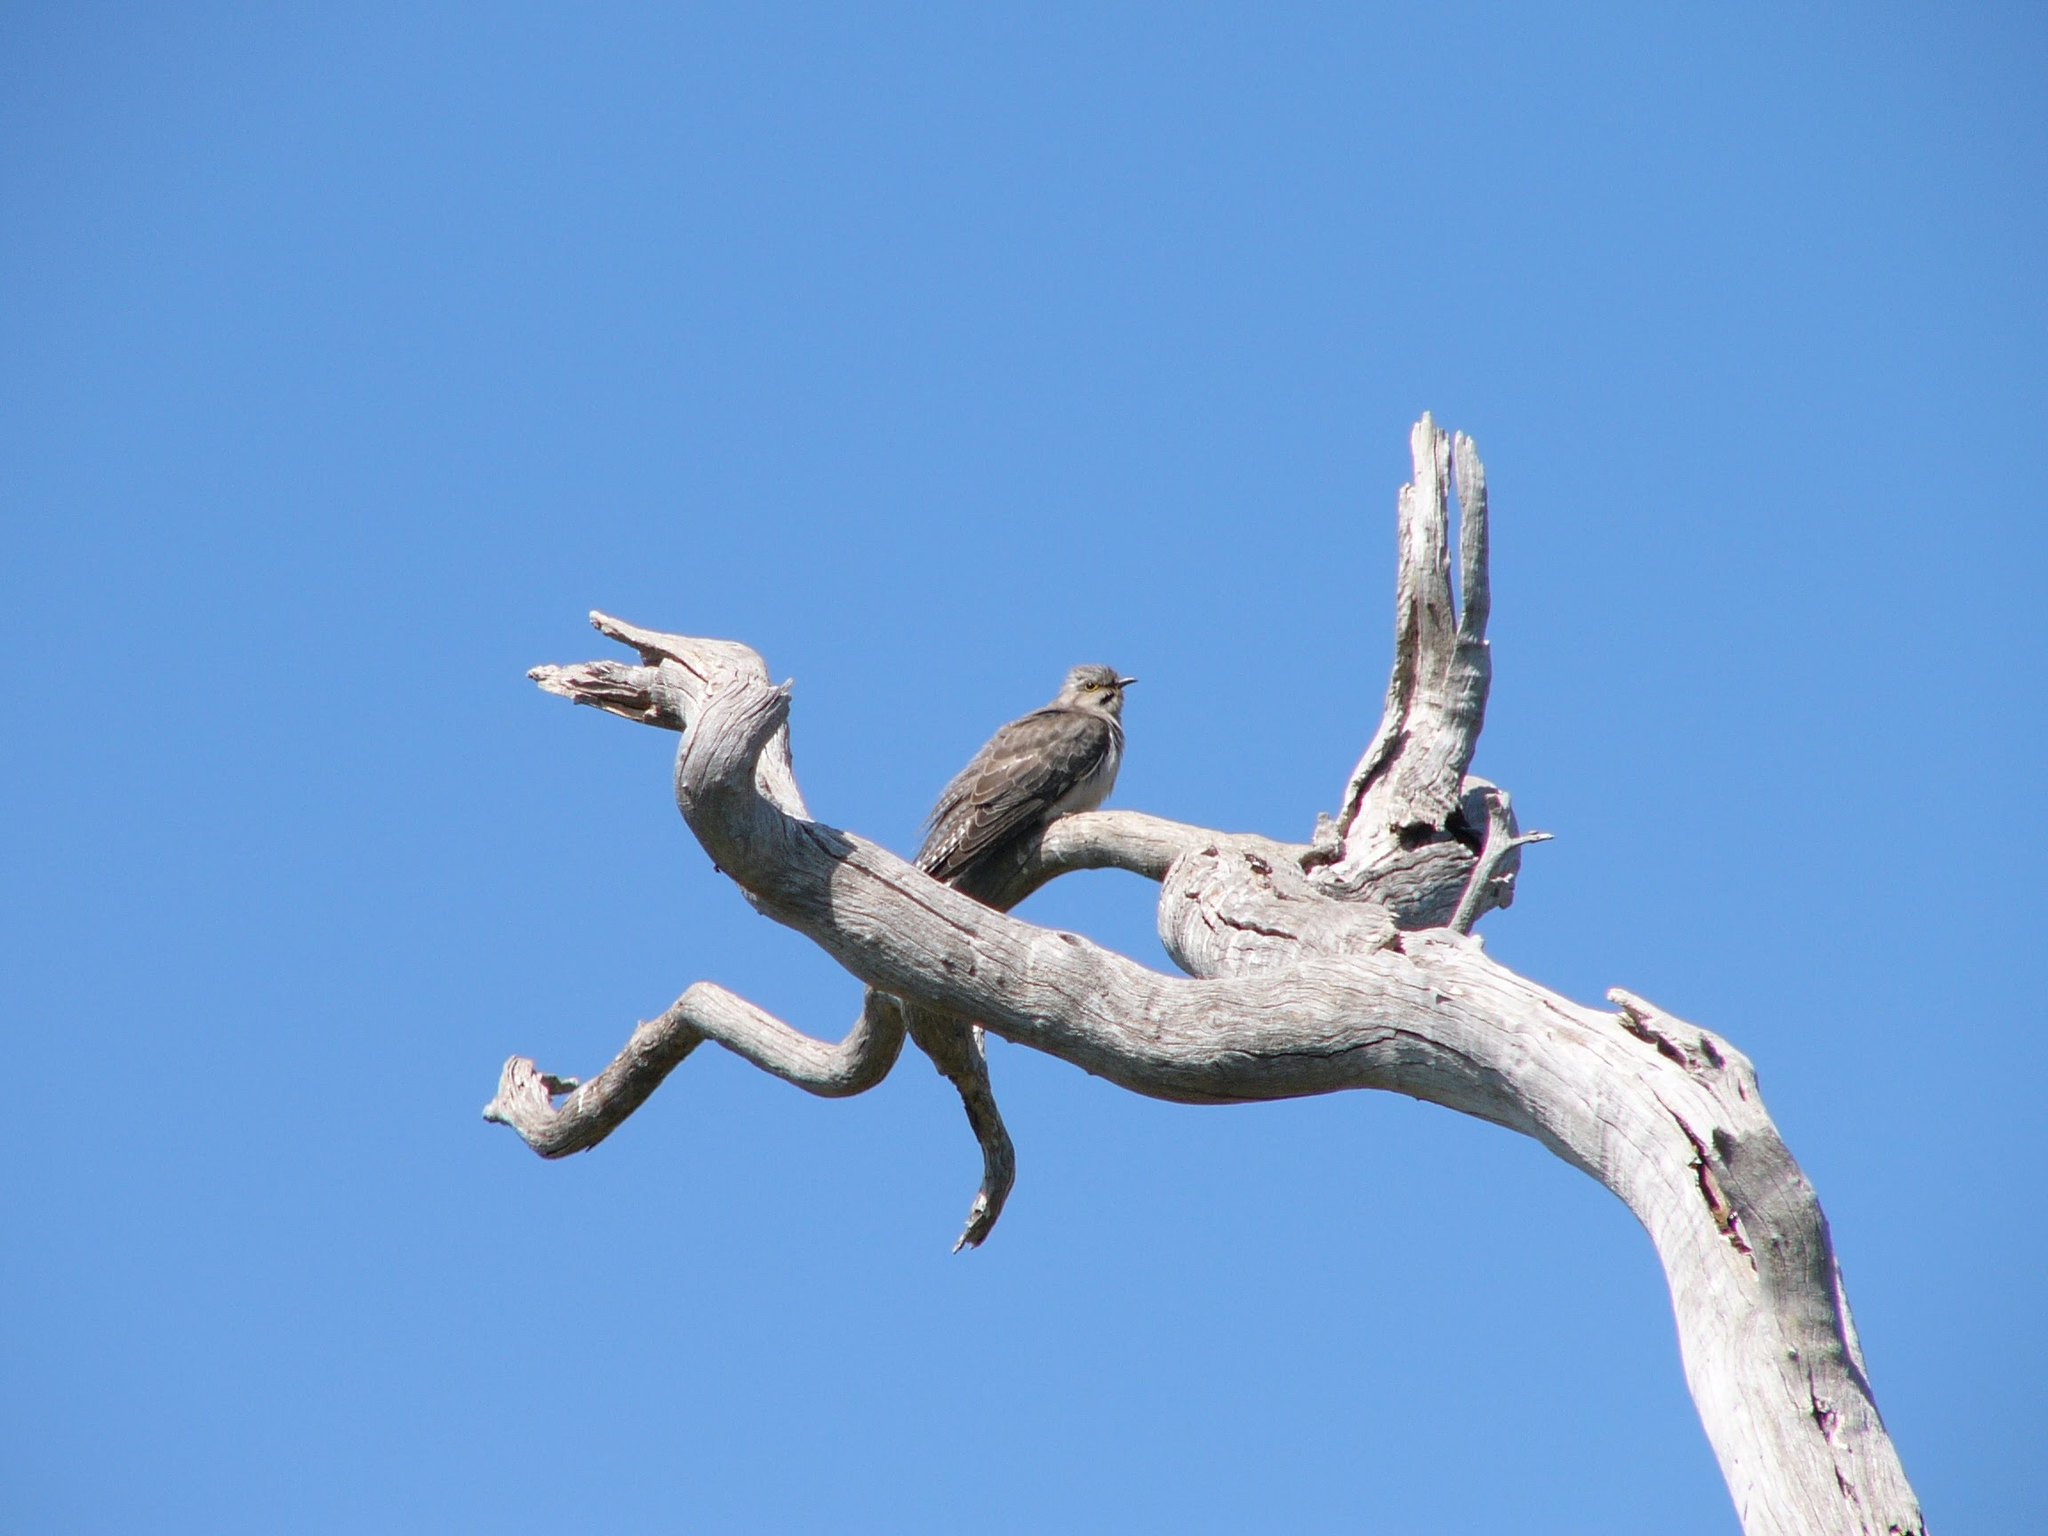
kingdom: Animalia
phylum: Chordata
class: Aves
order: Cuculiformes
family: Cuculidae
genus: Cuculus
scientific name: Cuculus pallidus
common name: Pallid cuckoo
